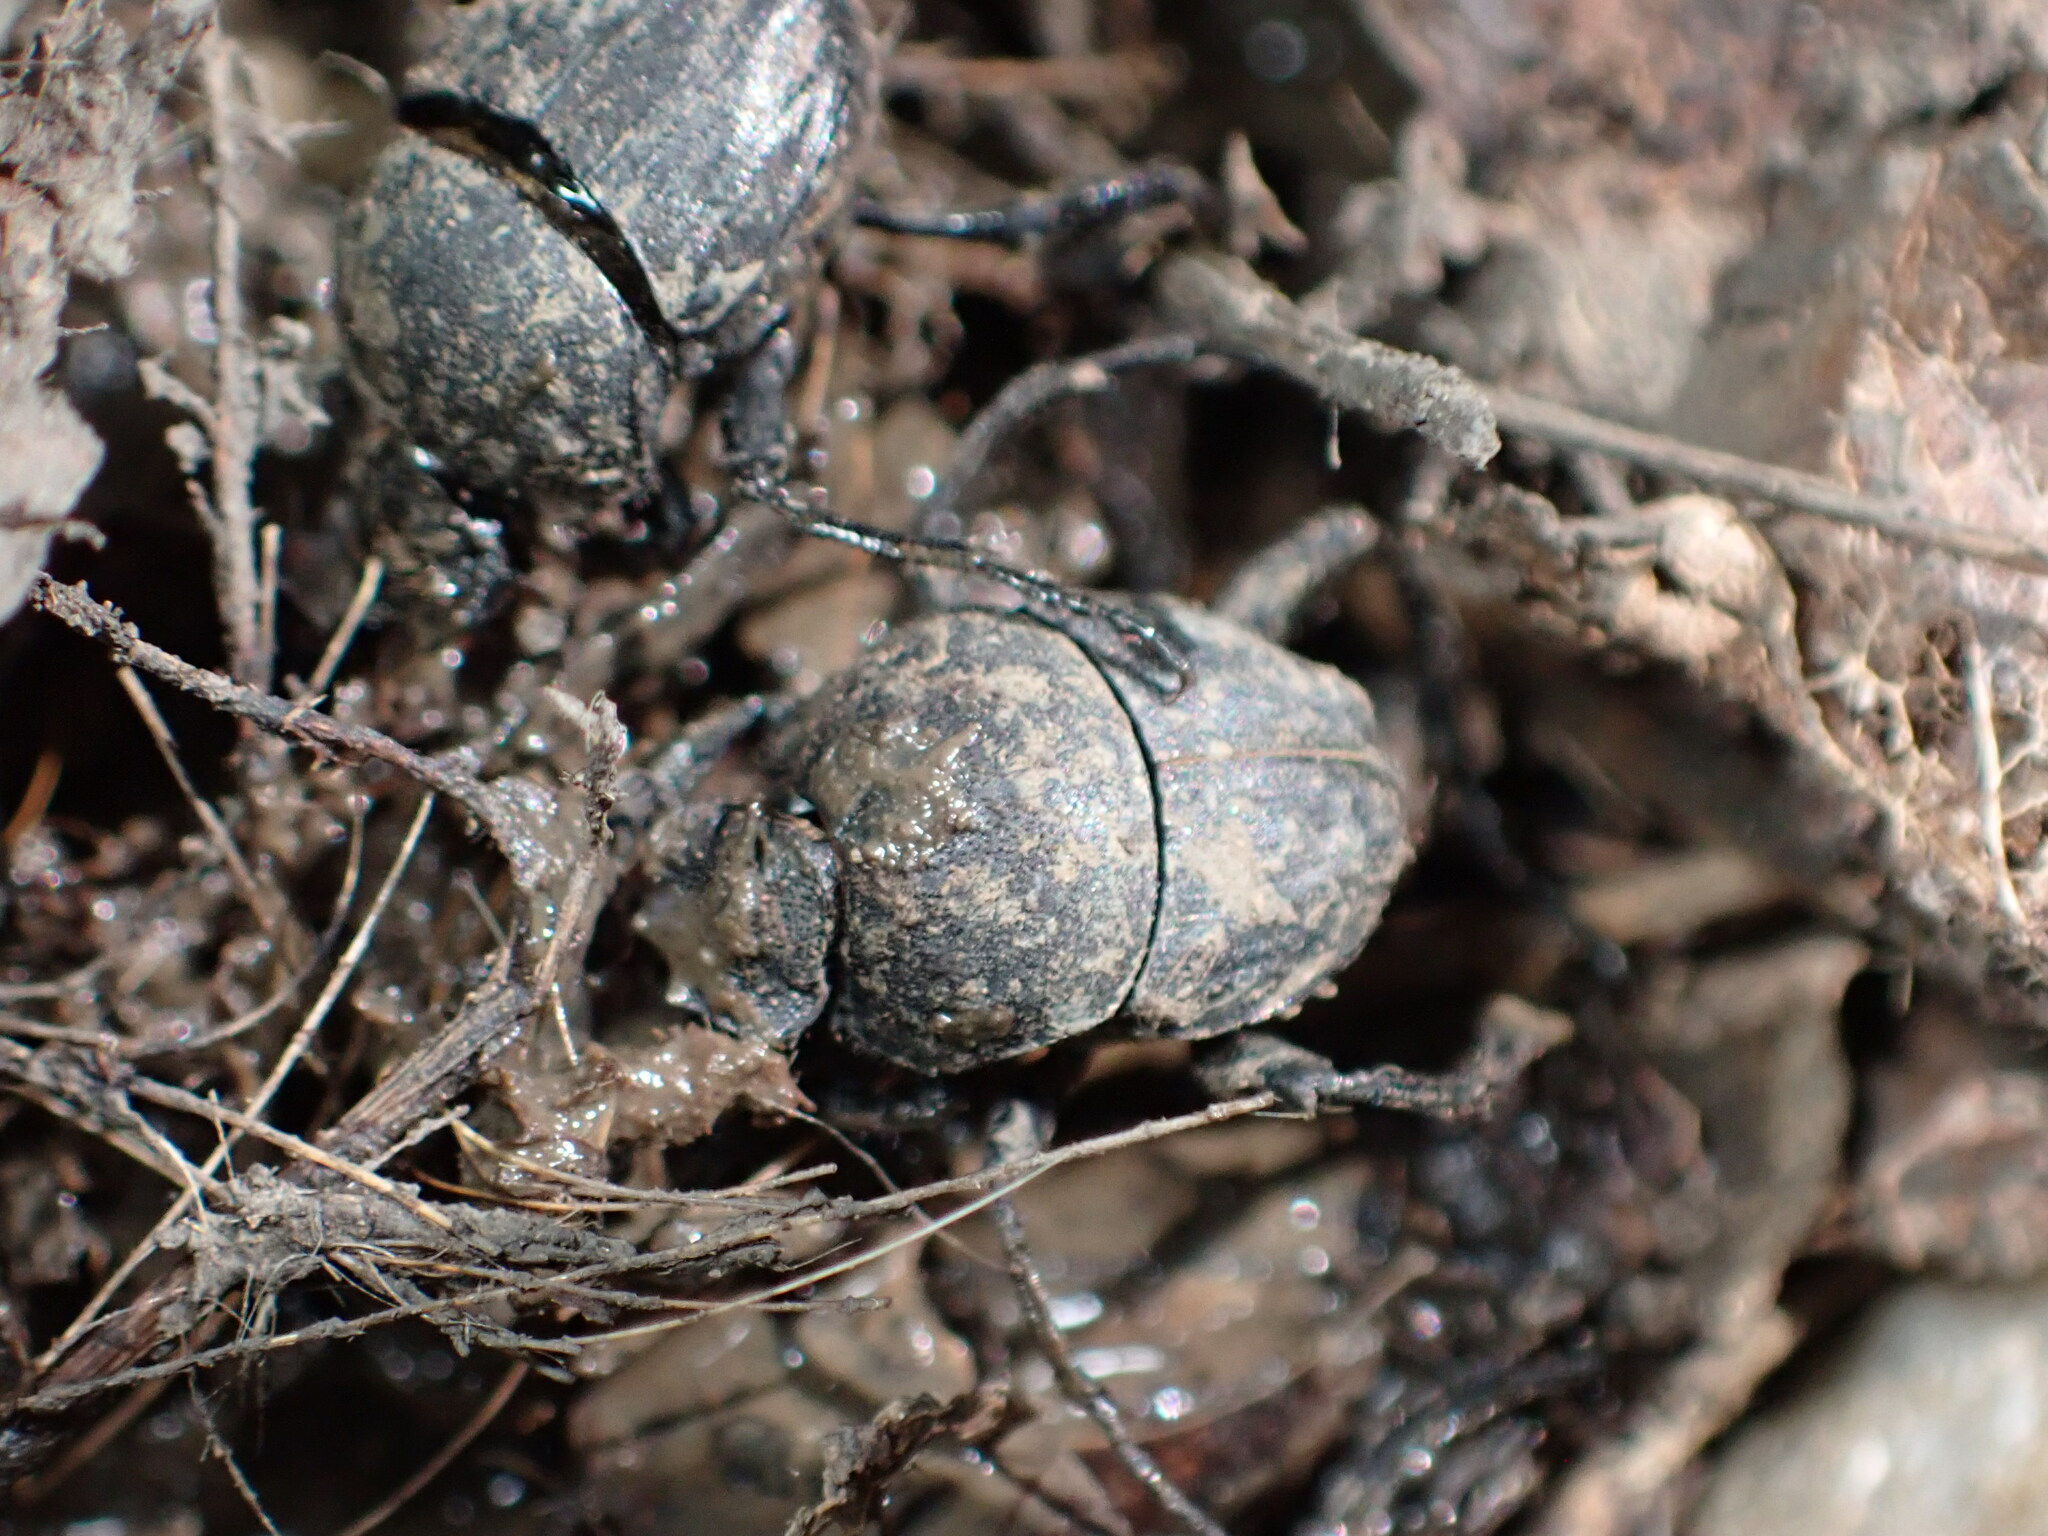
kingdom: Animalia
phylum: Arthropoda
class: Insecta
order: Coleoptera
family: Scarabaeidae
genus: Sisyphus
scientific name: Sisyphus schaefferi
